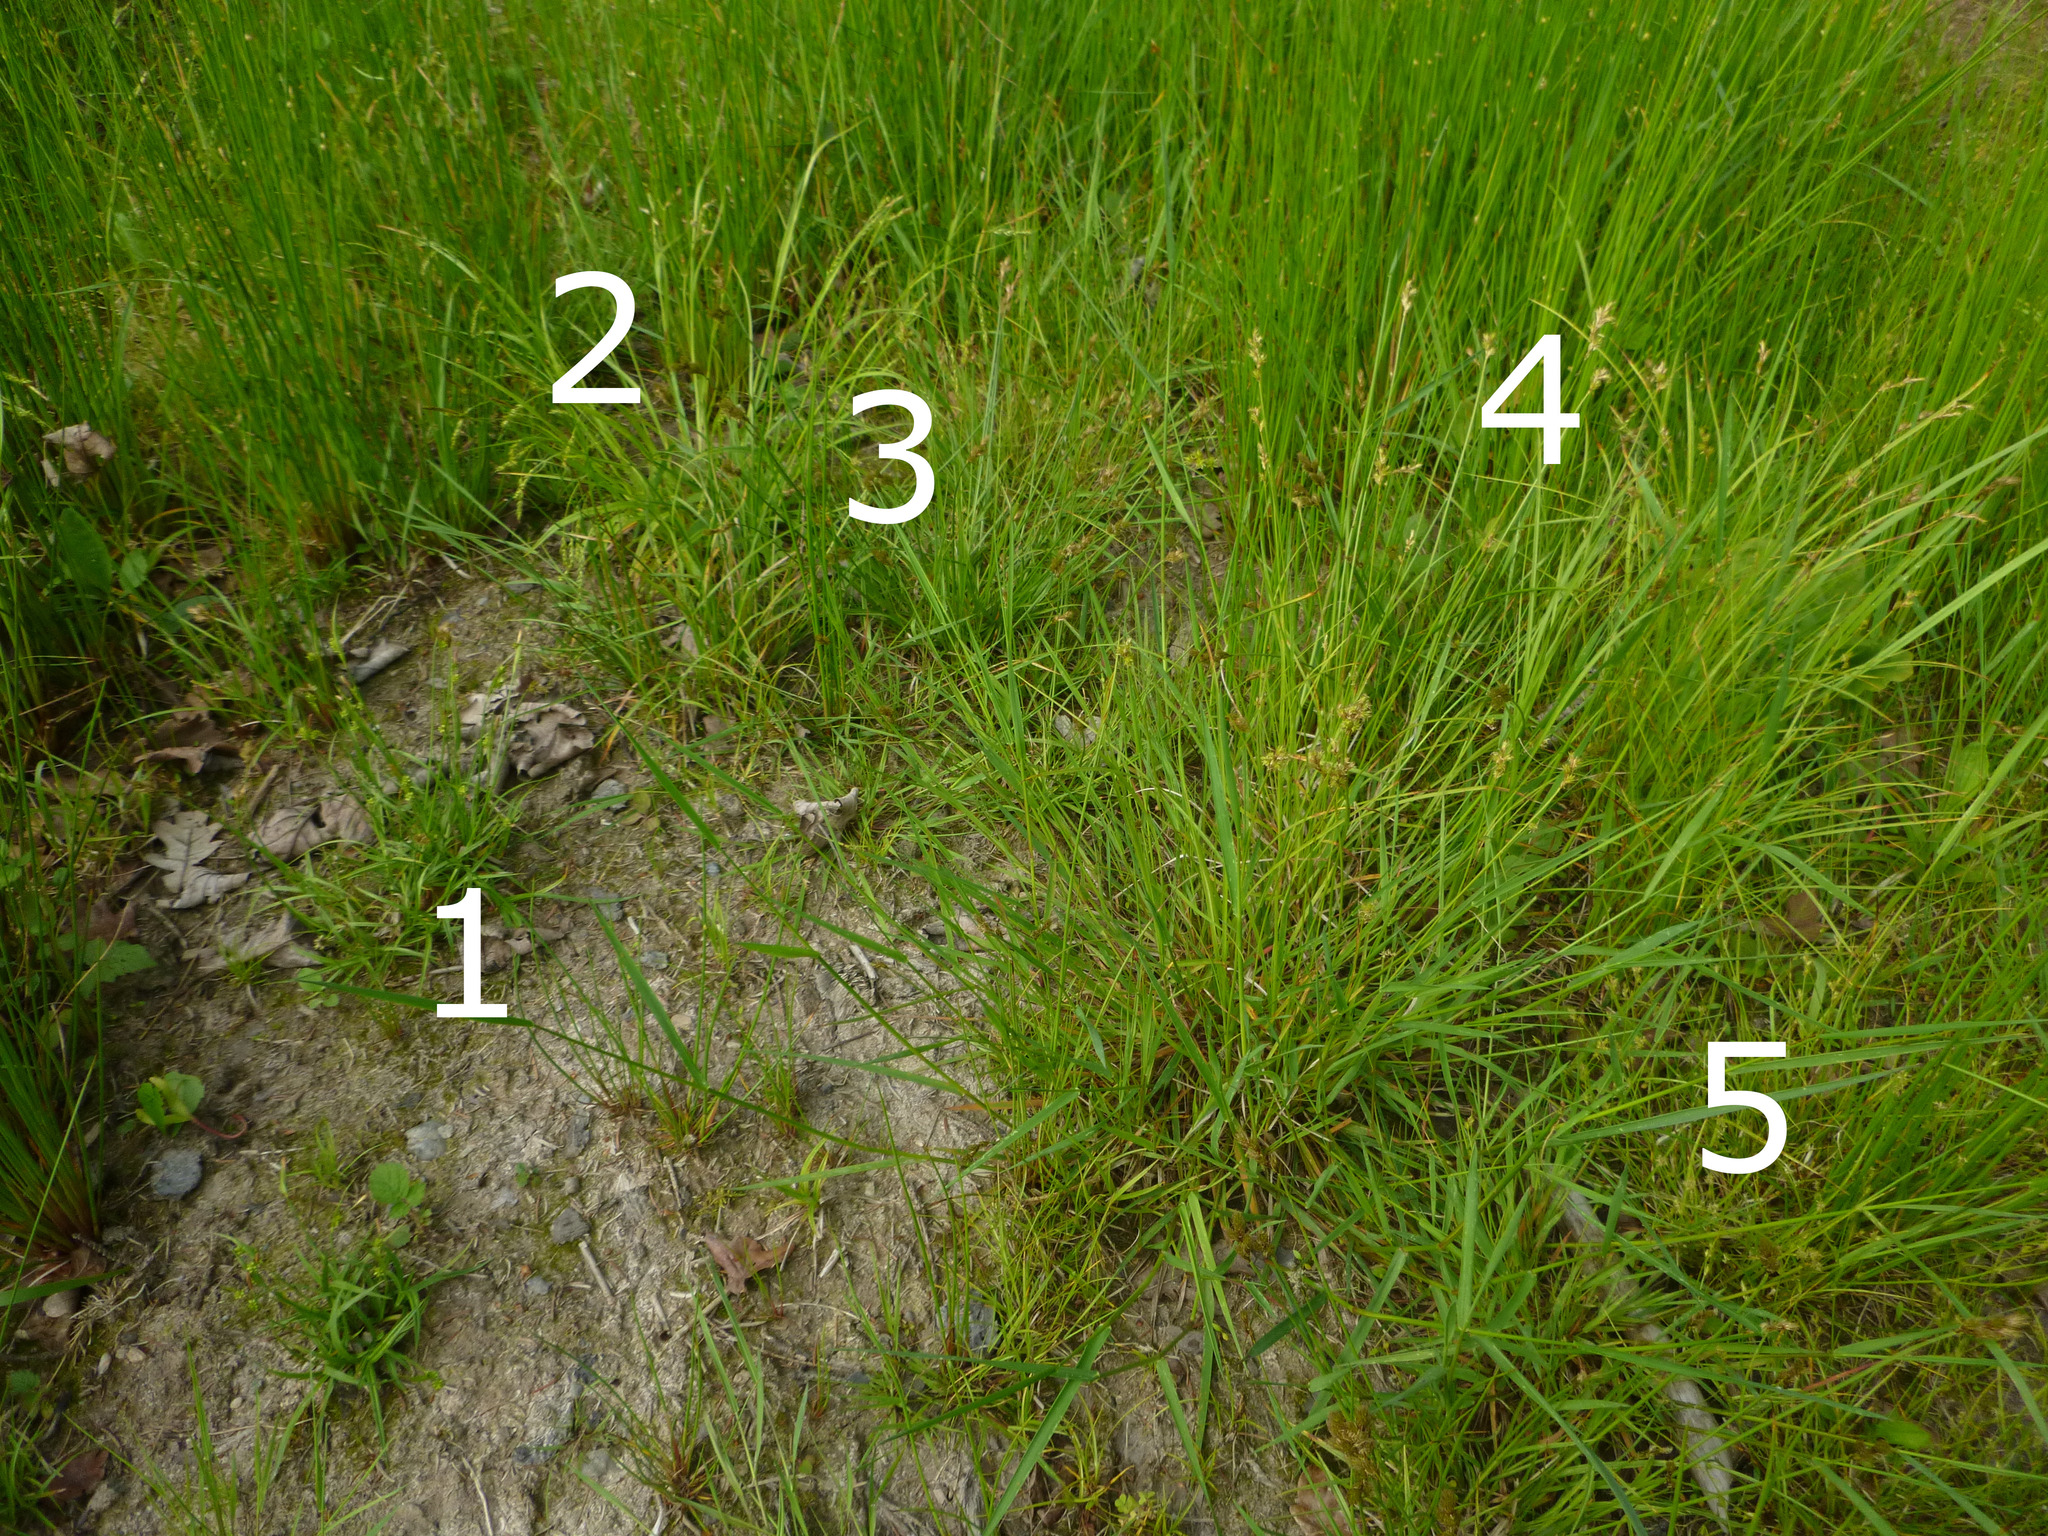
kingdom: Plantae
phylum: Tracheophyta
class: Liliopsida
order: Poales
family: Cyperaceae
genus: Carex
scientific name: Carex remota
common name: Remote sedge
